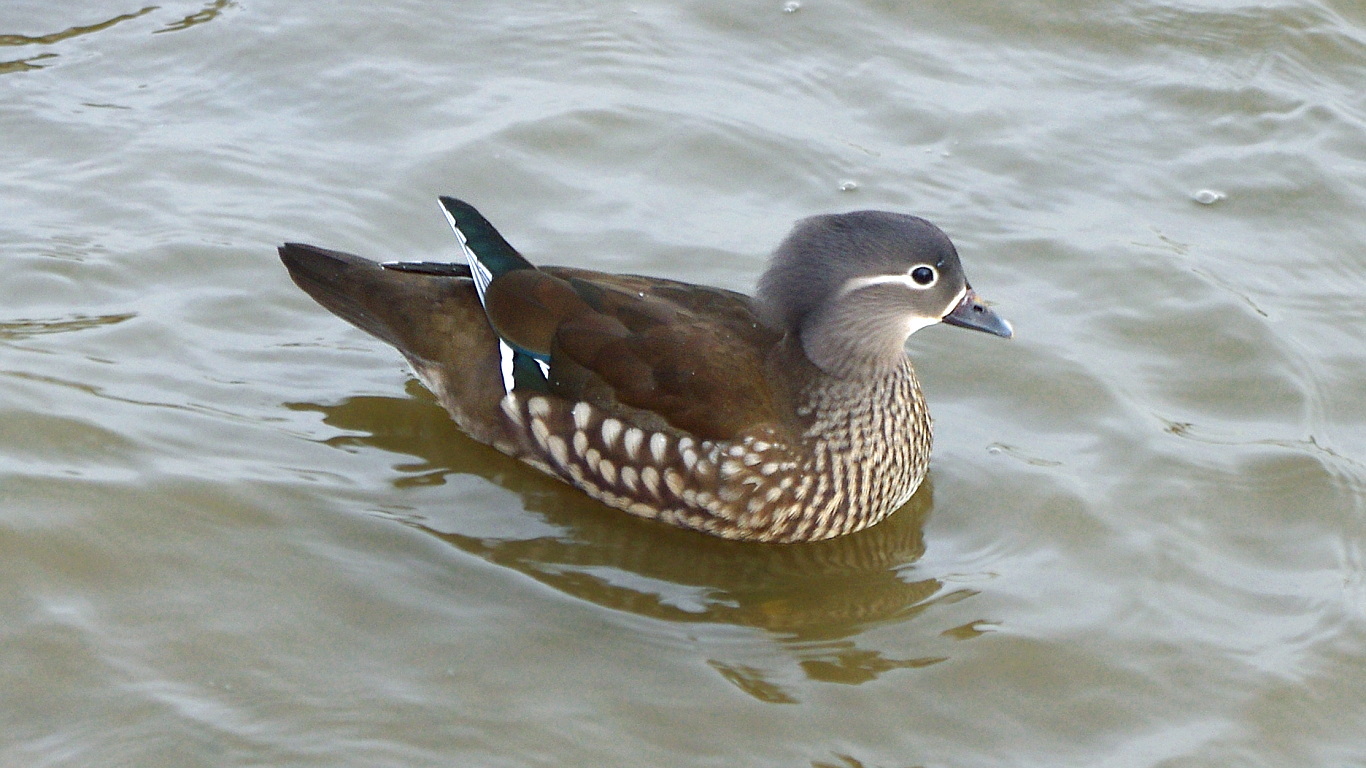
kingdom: Animalia
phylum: Chordata
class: Aves
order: Anseriformes
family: Anatidae
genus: Aix
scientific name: Aix galericulata
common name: Mandarin duck
